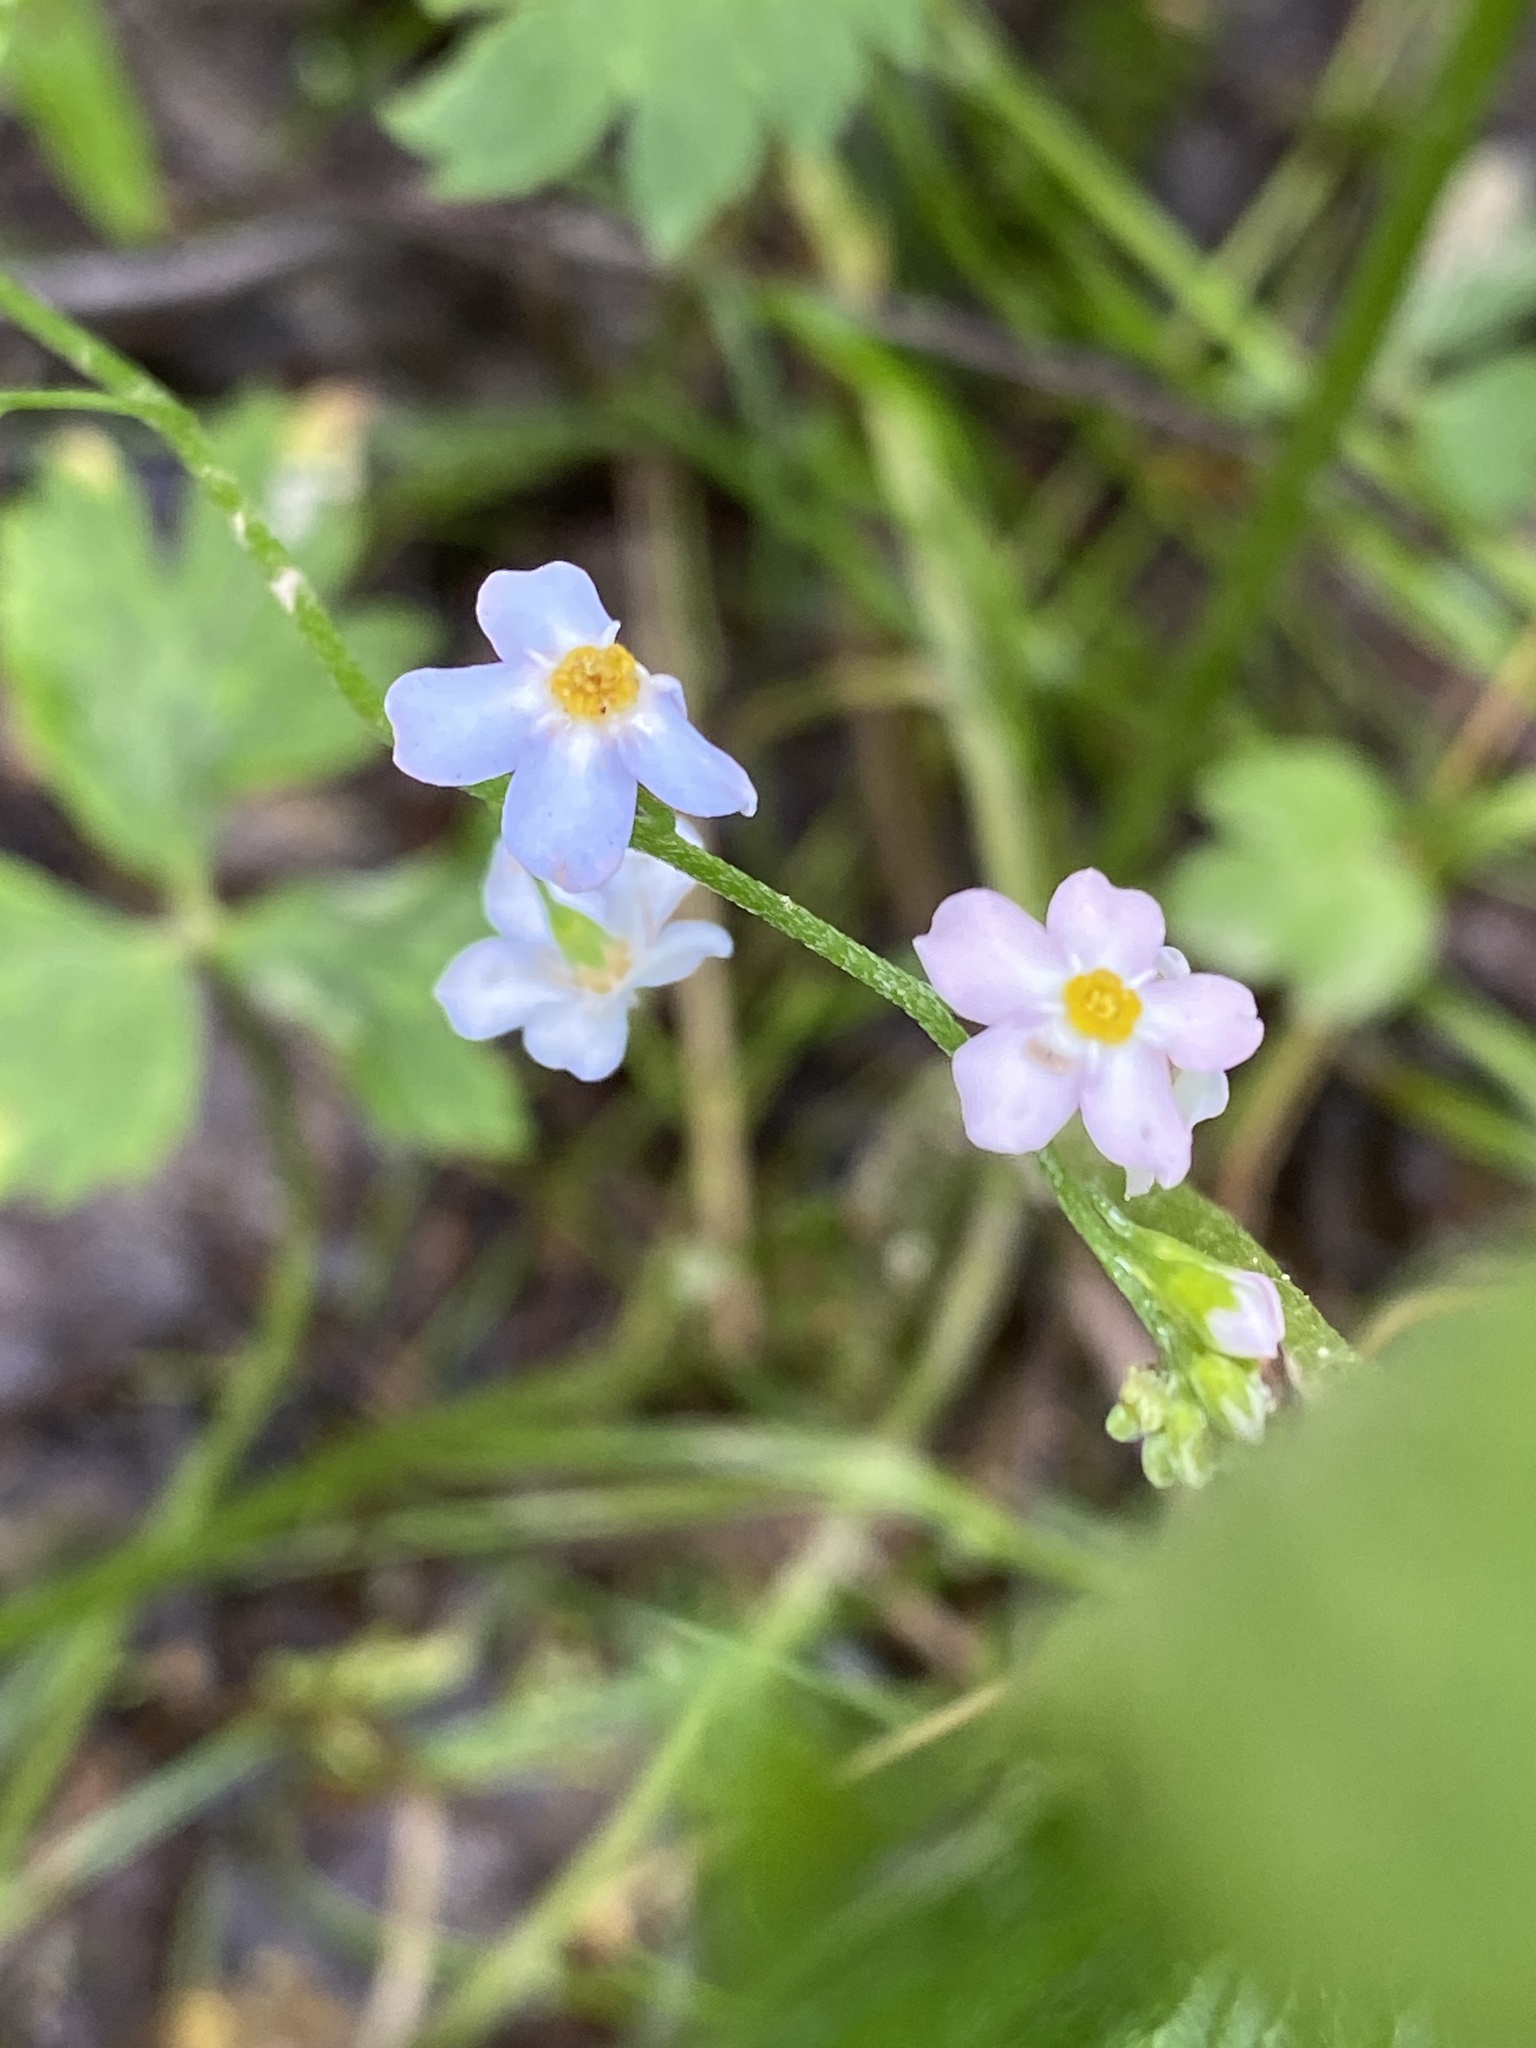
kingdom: Plantae
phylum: Tracheophyta
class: Magnoliopsida
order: Boraginales
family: Boraginaceae
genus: Myosotis
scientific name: Myosotis scorpioides
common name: Water forget-me-not
